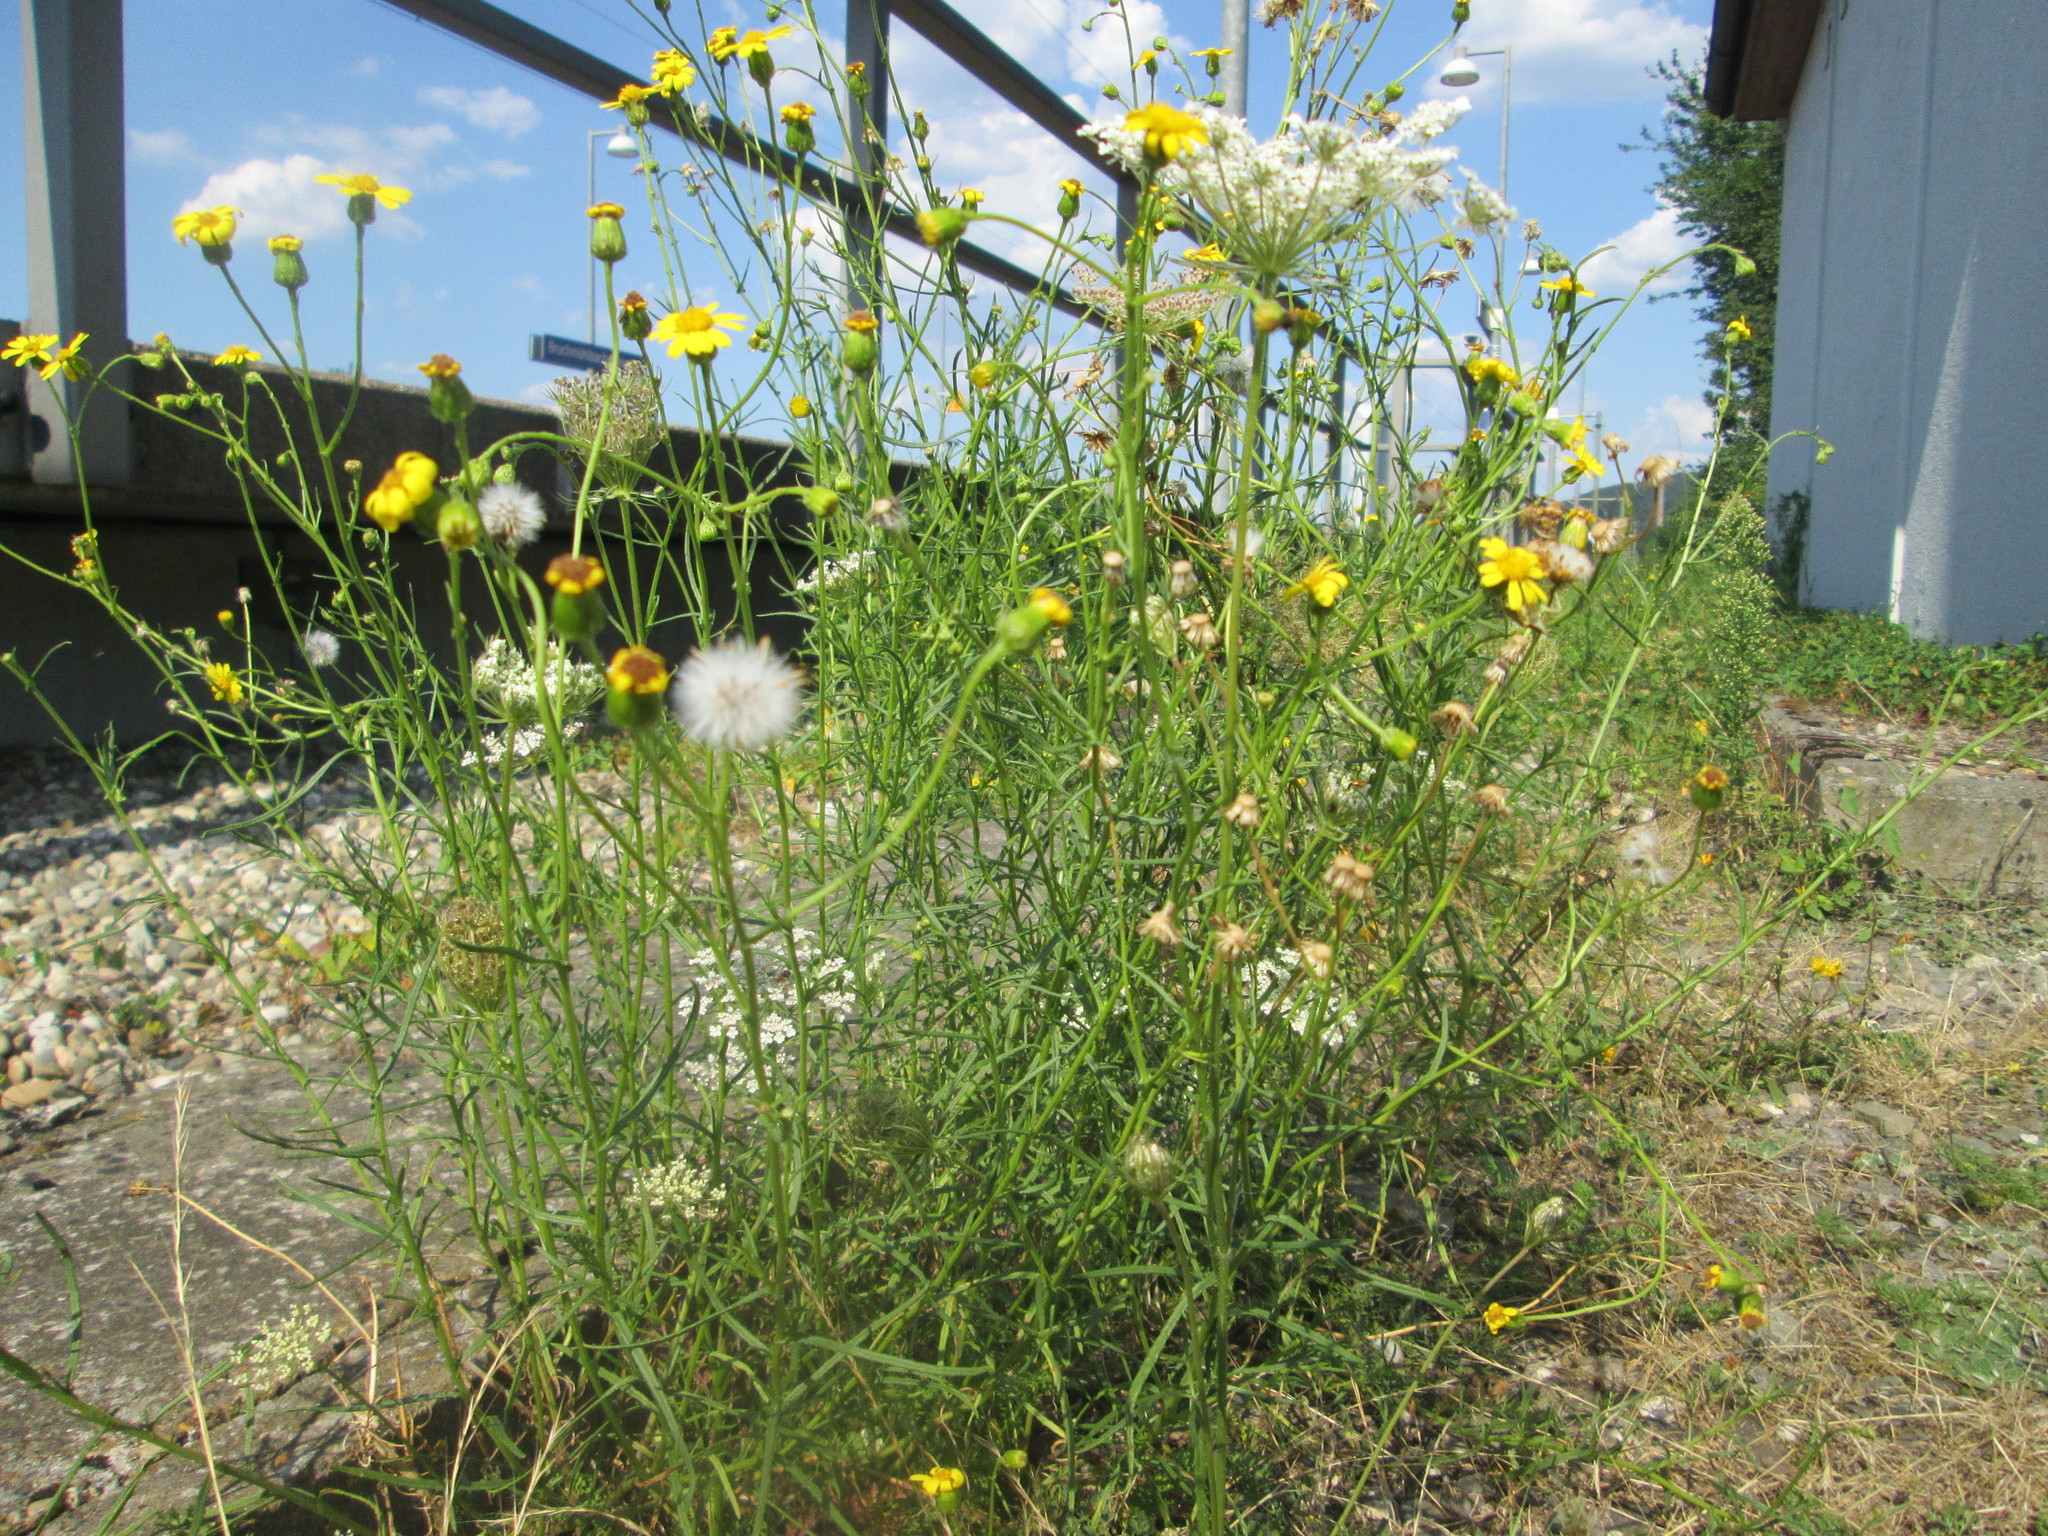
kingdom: Plantae
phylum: Tracheophyta
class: Magnoliopsida
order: Asterales
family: Asteraceae
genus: Senecio
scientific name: Senecio inaequidens
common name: Narrow-leaved ragwort
